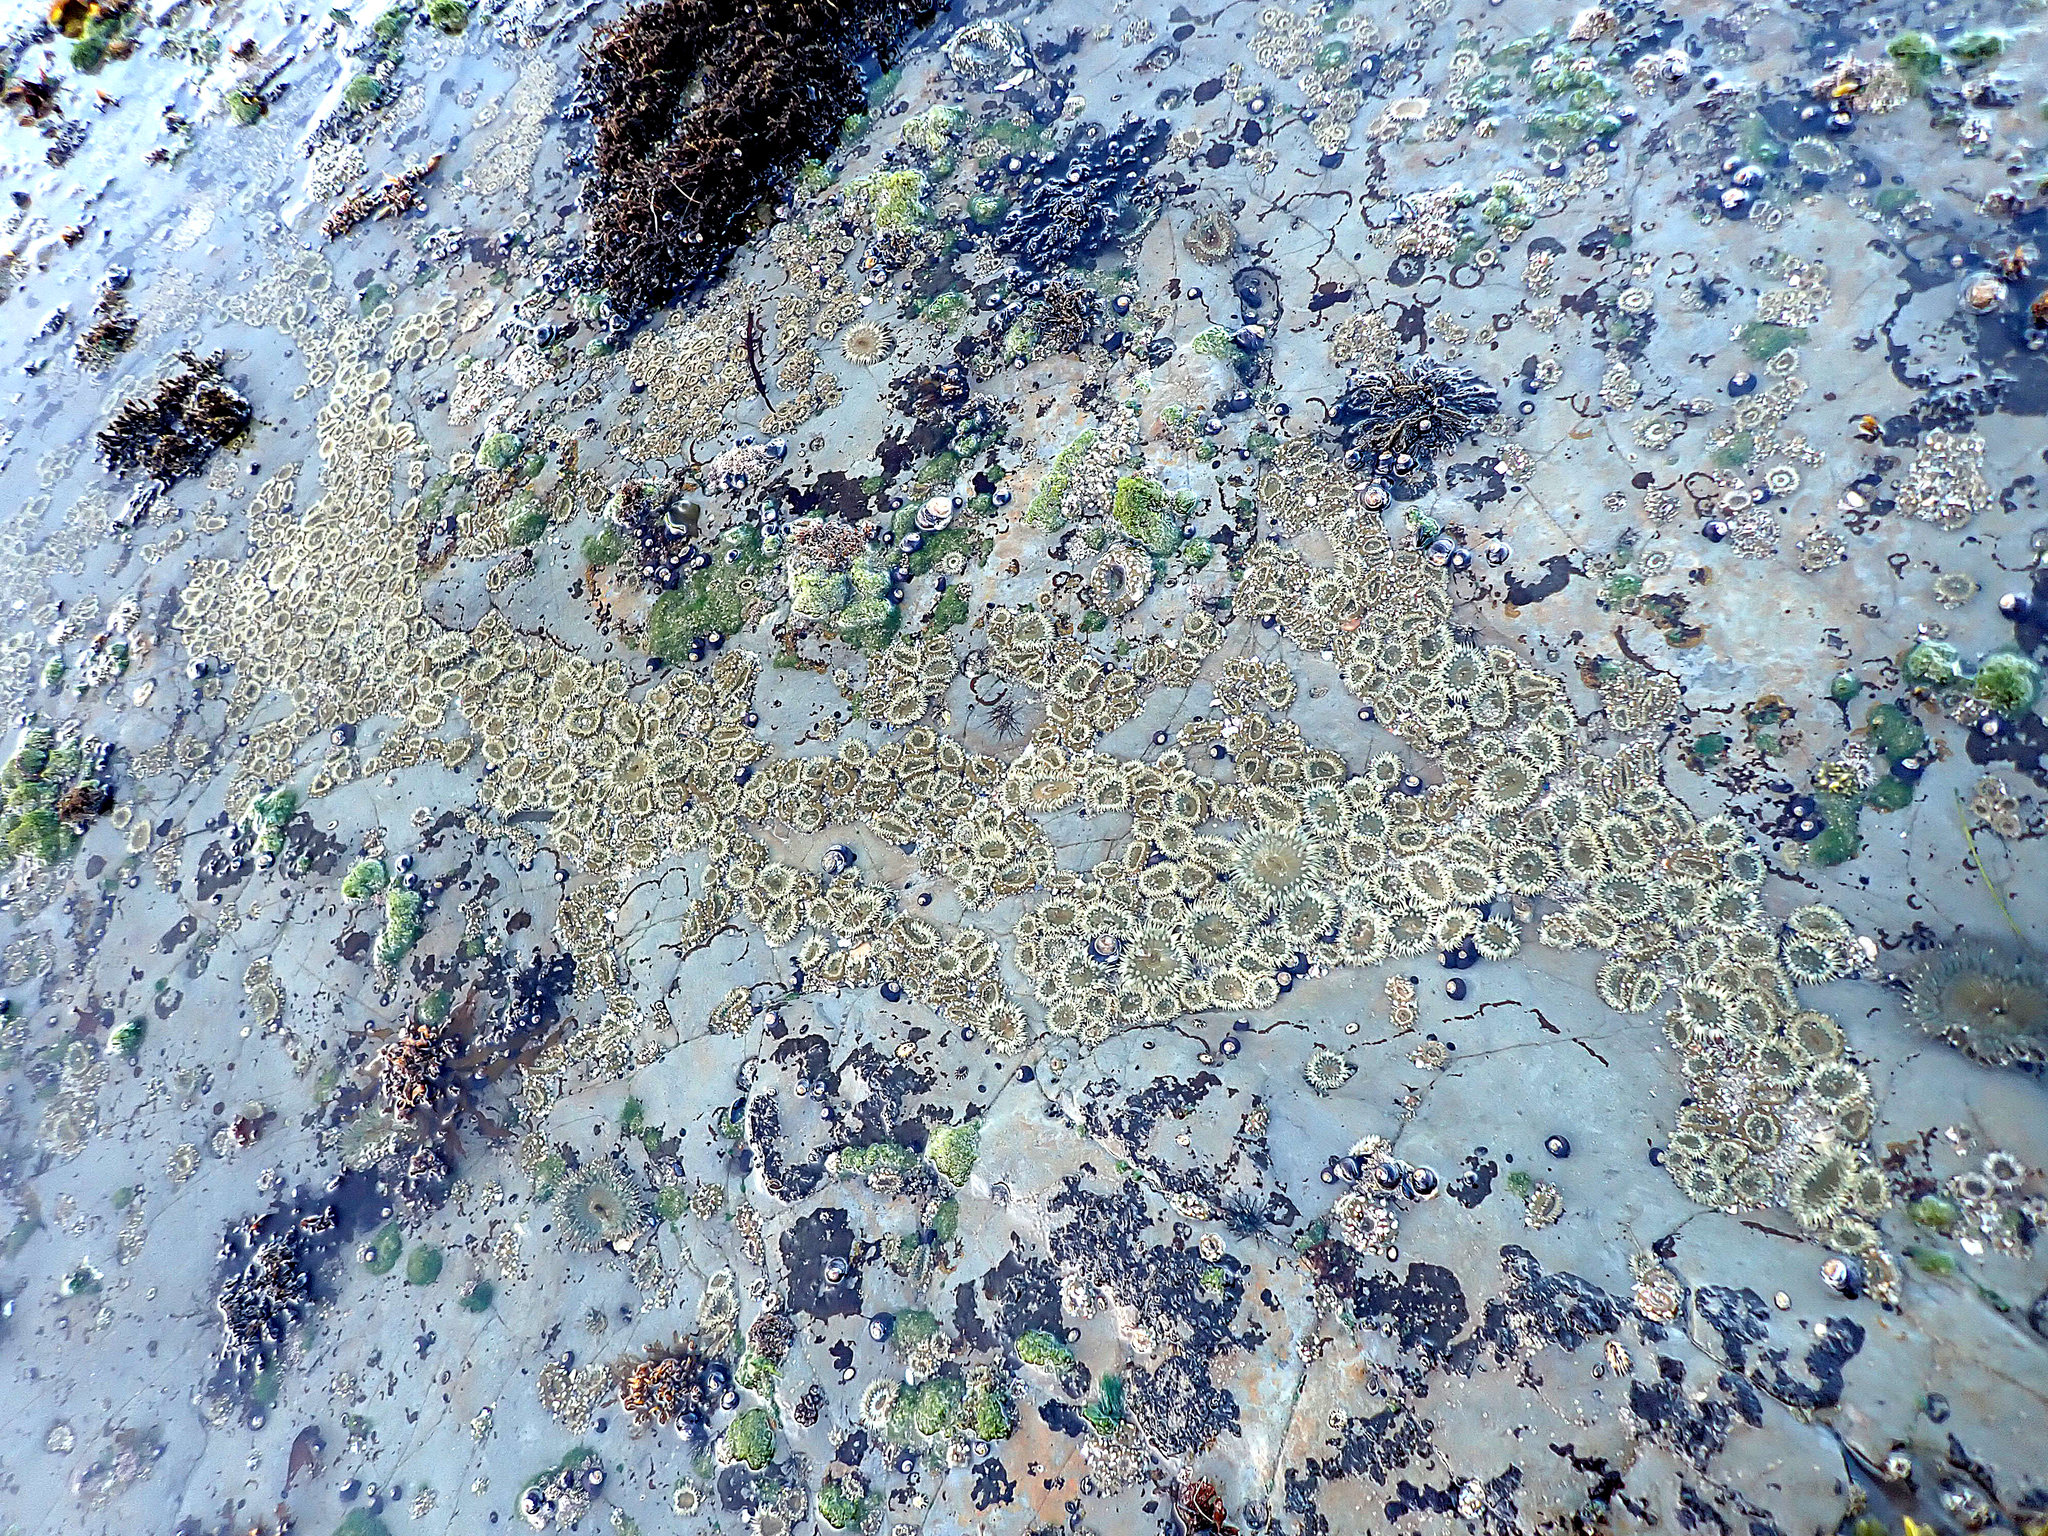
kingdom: Animalia
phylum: Cnidaria
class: Anthozoa
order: Actiniaria
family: Actiniidae
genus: Anthopleura
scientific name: Anthopleura elegantissima
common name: Clonal anemone
